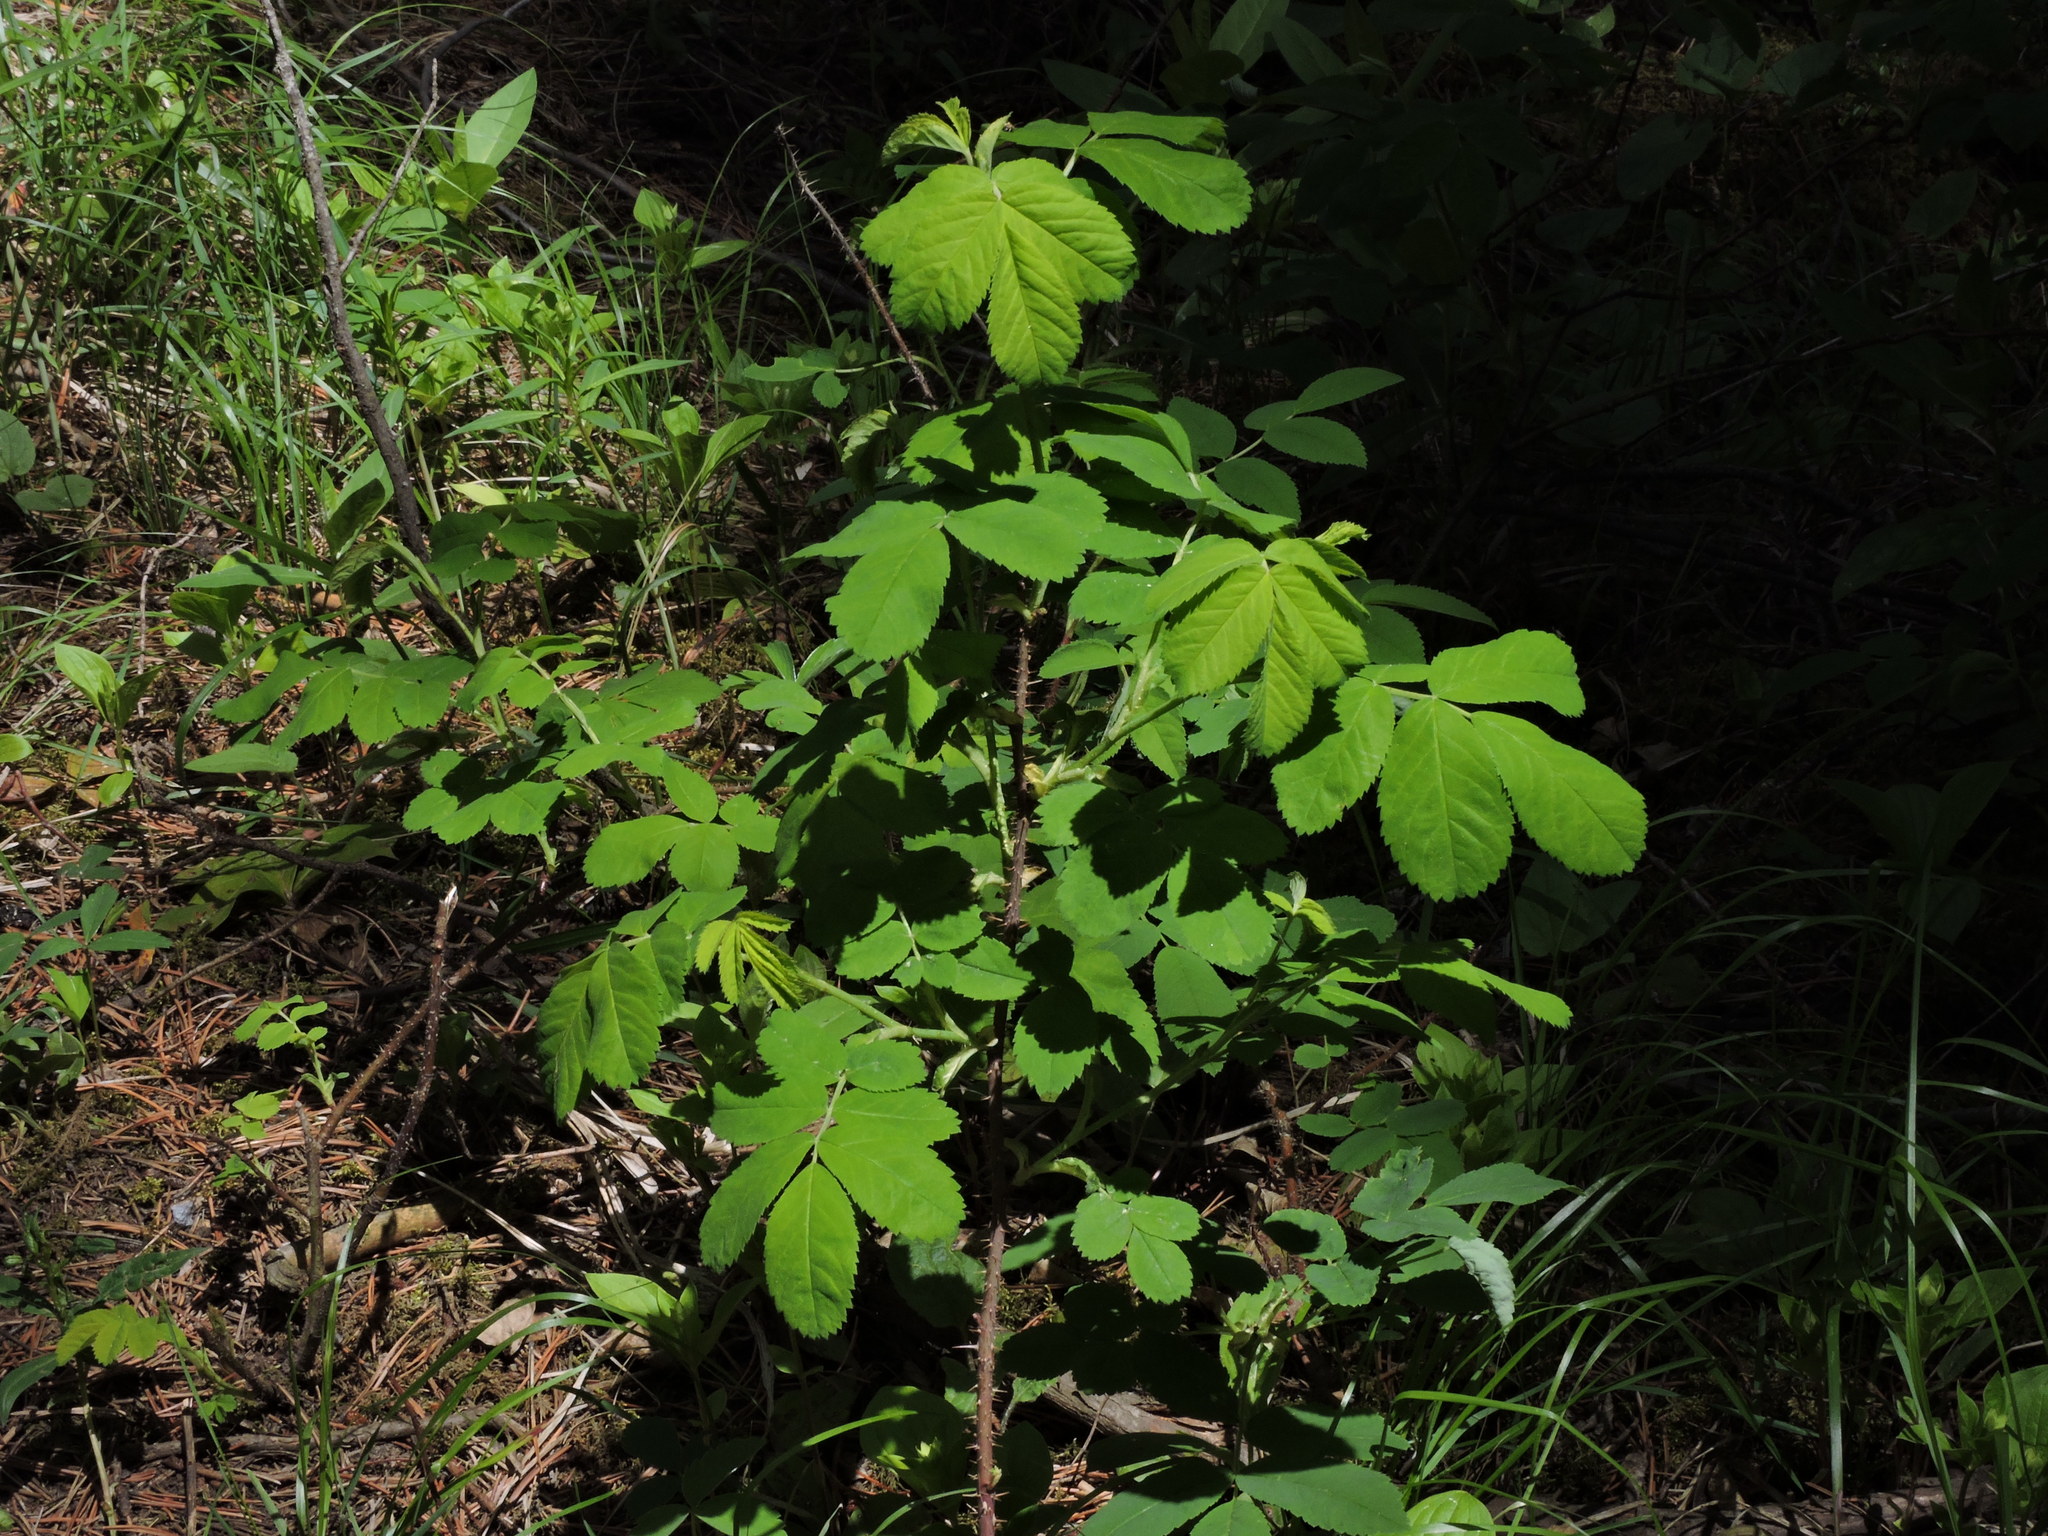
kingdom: Plantae
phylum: Tracheophyta
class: Magnoliopsida
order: Rosales
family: Rosaceae
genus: Rosa
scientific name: Rosa acicularis
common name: Prickly rose
